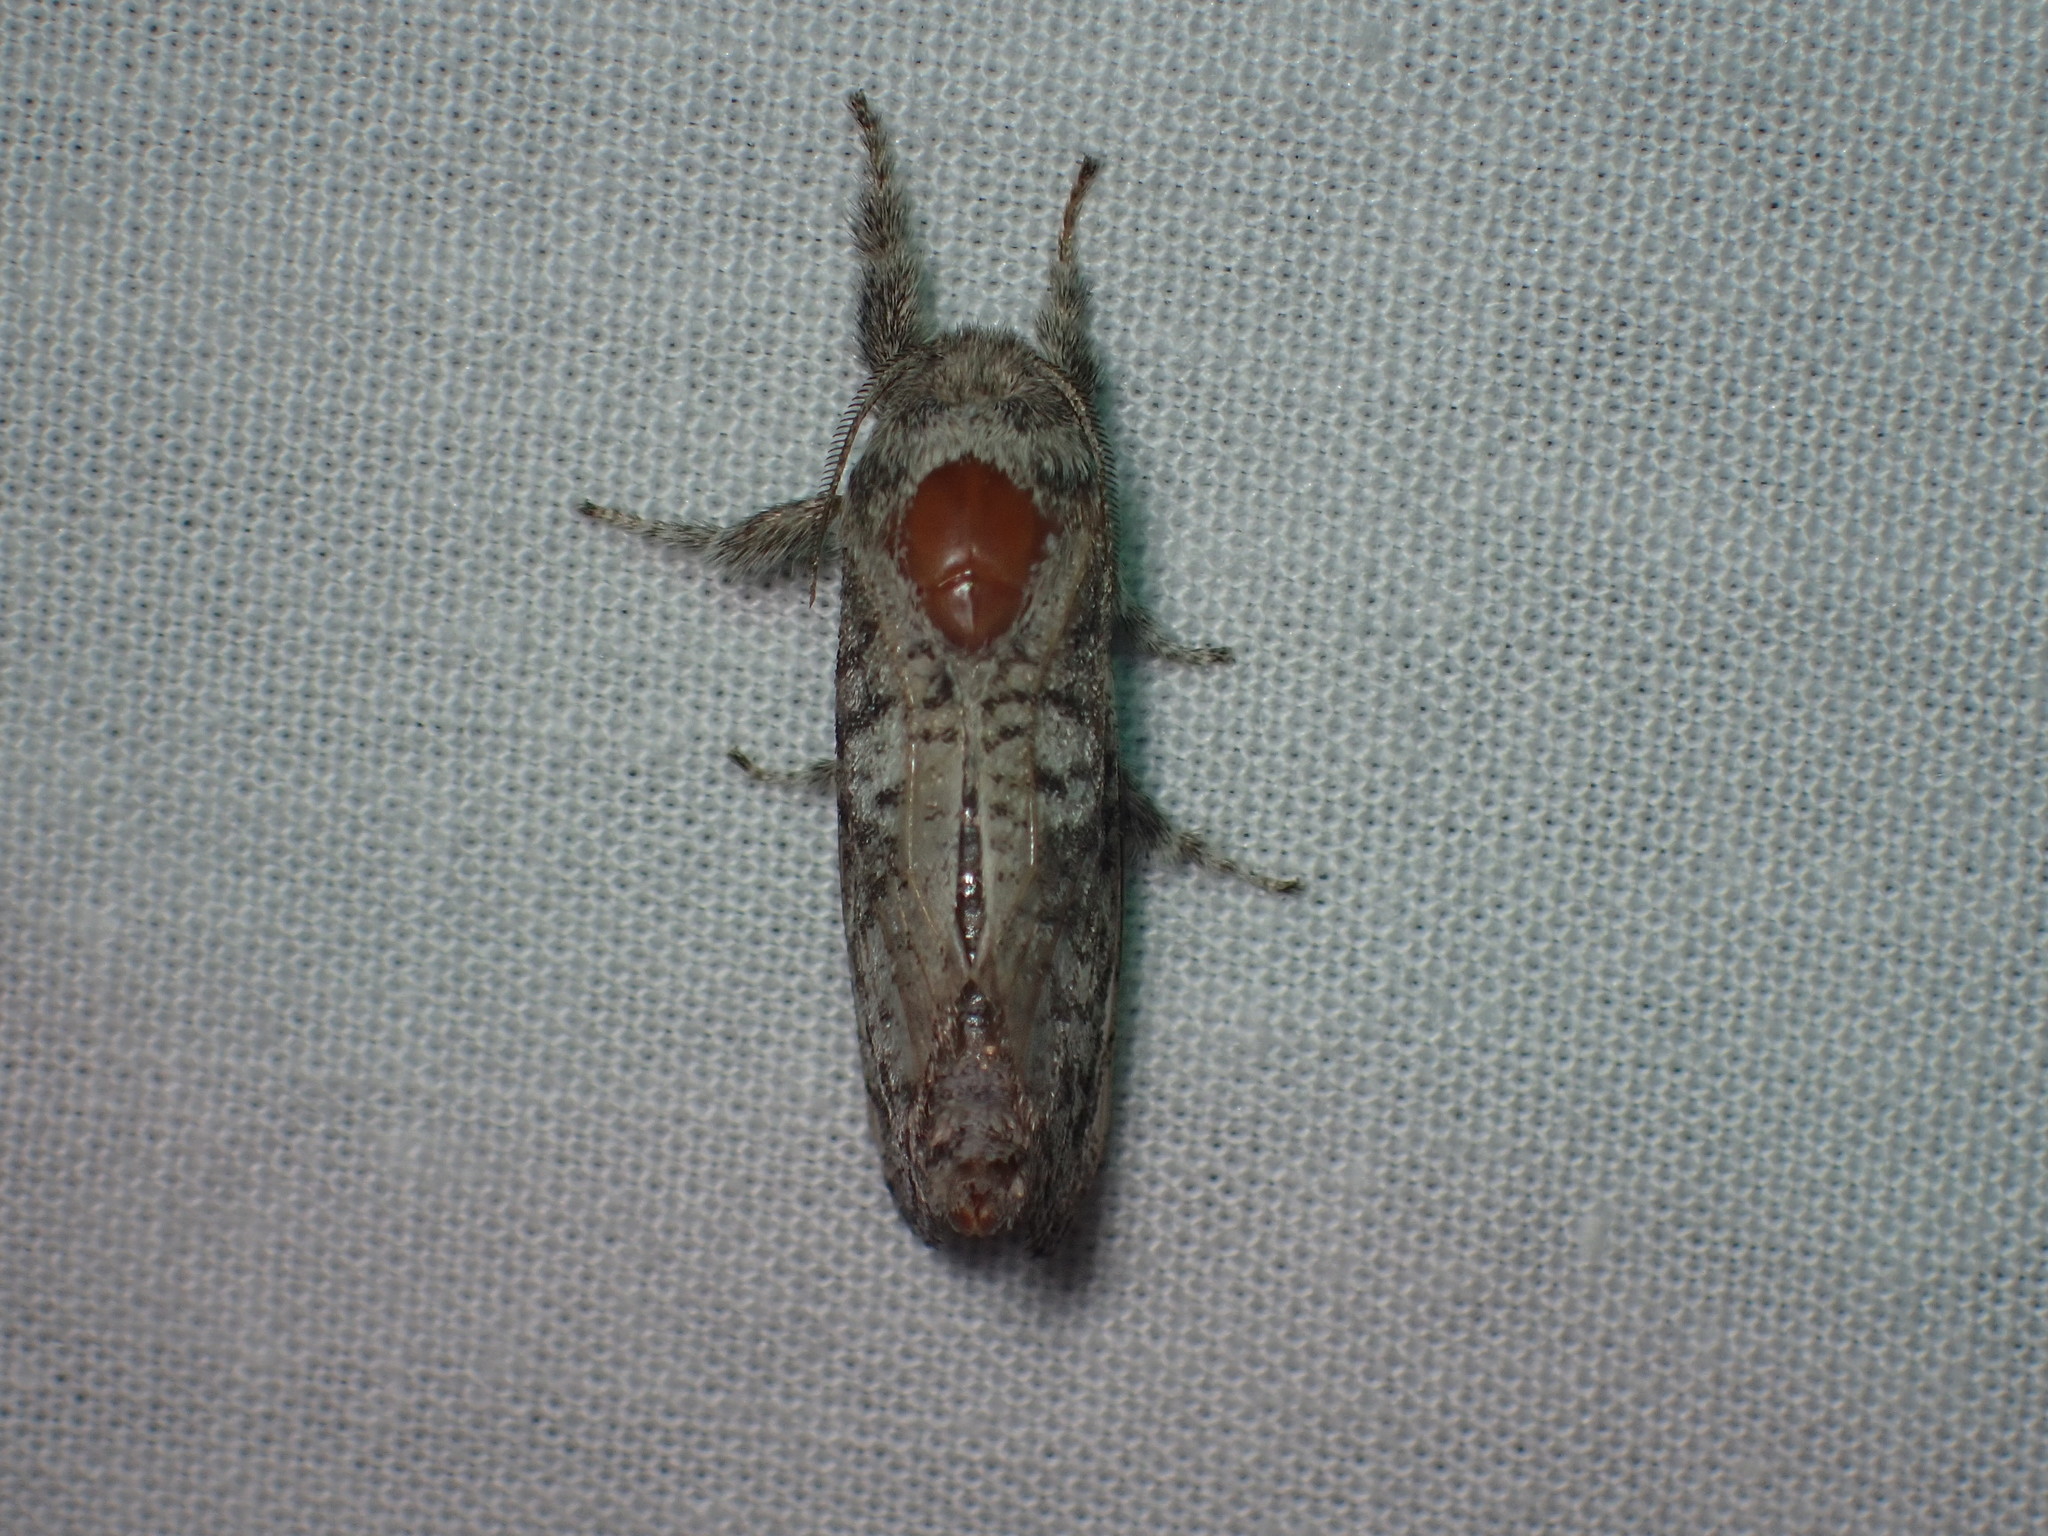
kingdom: Animalia
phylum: Arthropoda
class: Insecta
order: Lepidoptera
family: Cossidae
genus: Givira
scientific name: Givira francesca
